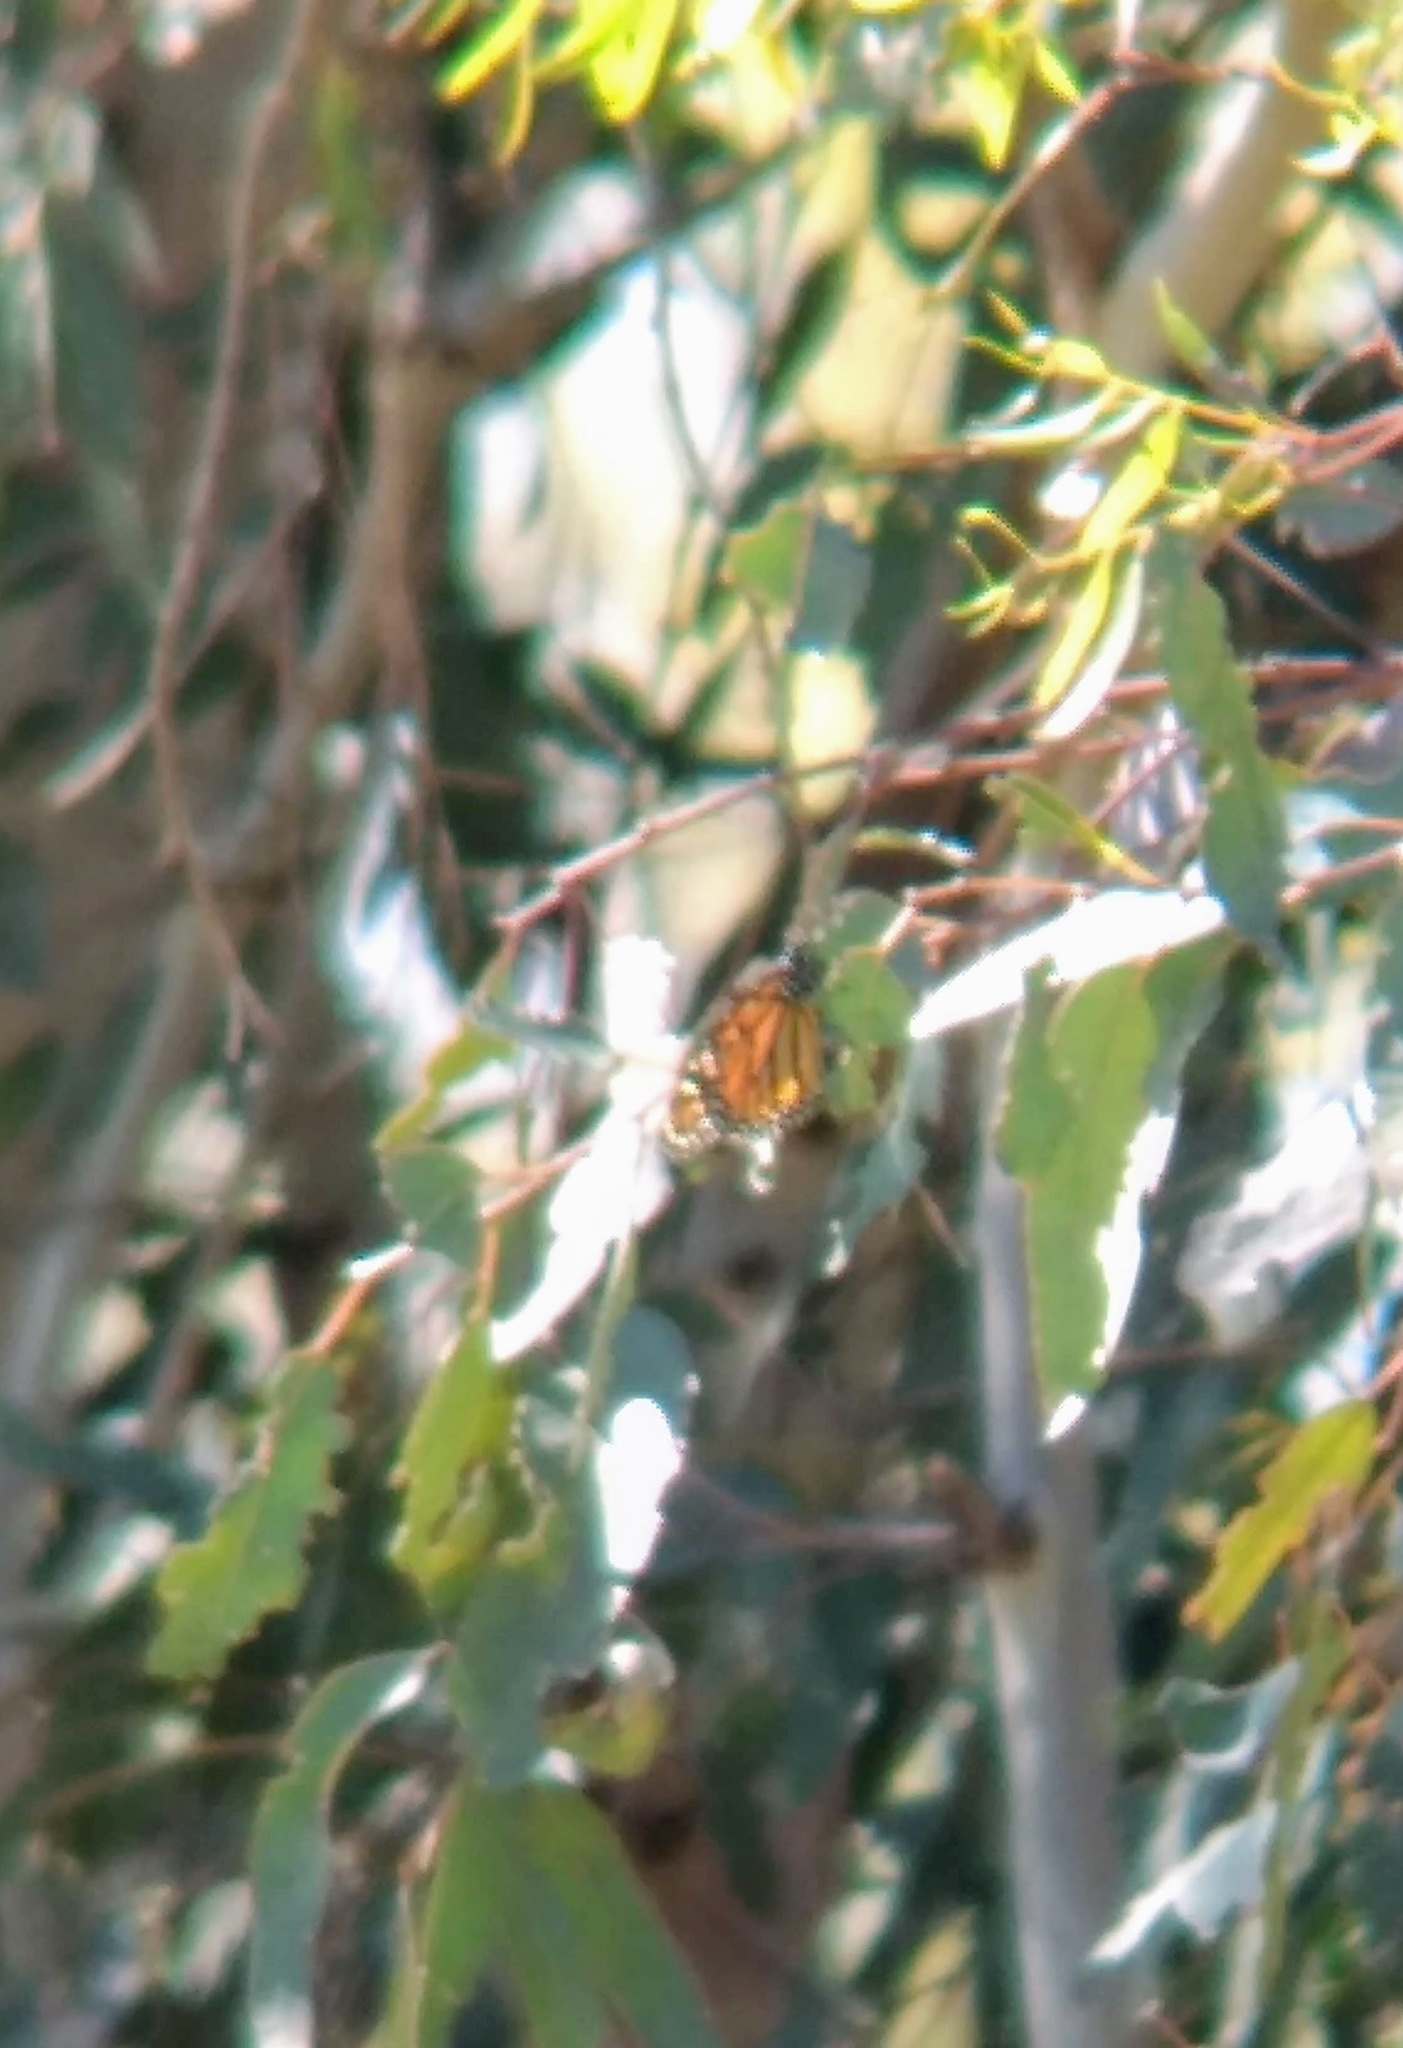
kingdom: Animalia
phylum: Arthropoda
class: Insecta
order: Lepidoptera
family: Nymphalidae
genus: Danaus
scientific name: Danaus plexippus
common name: Monarch
